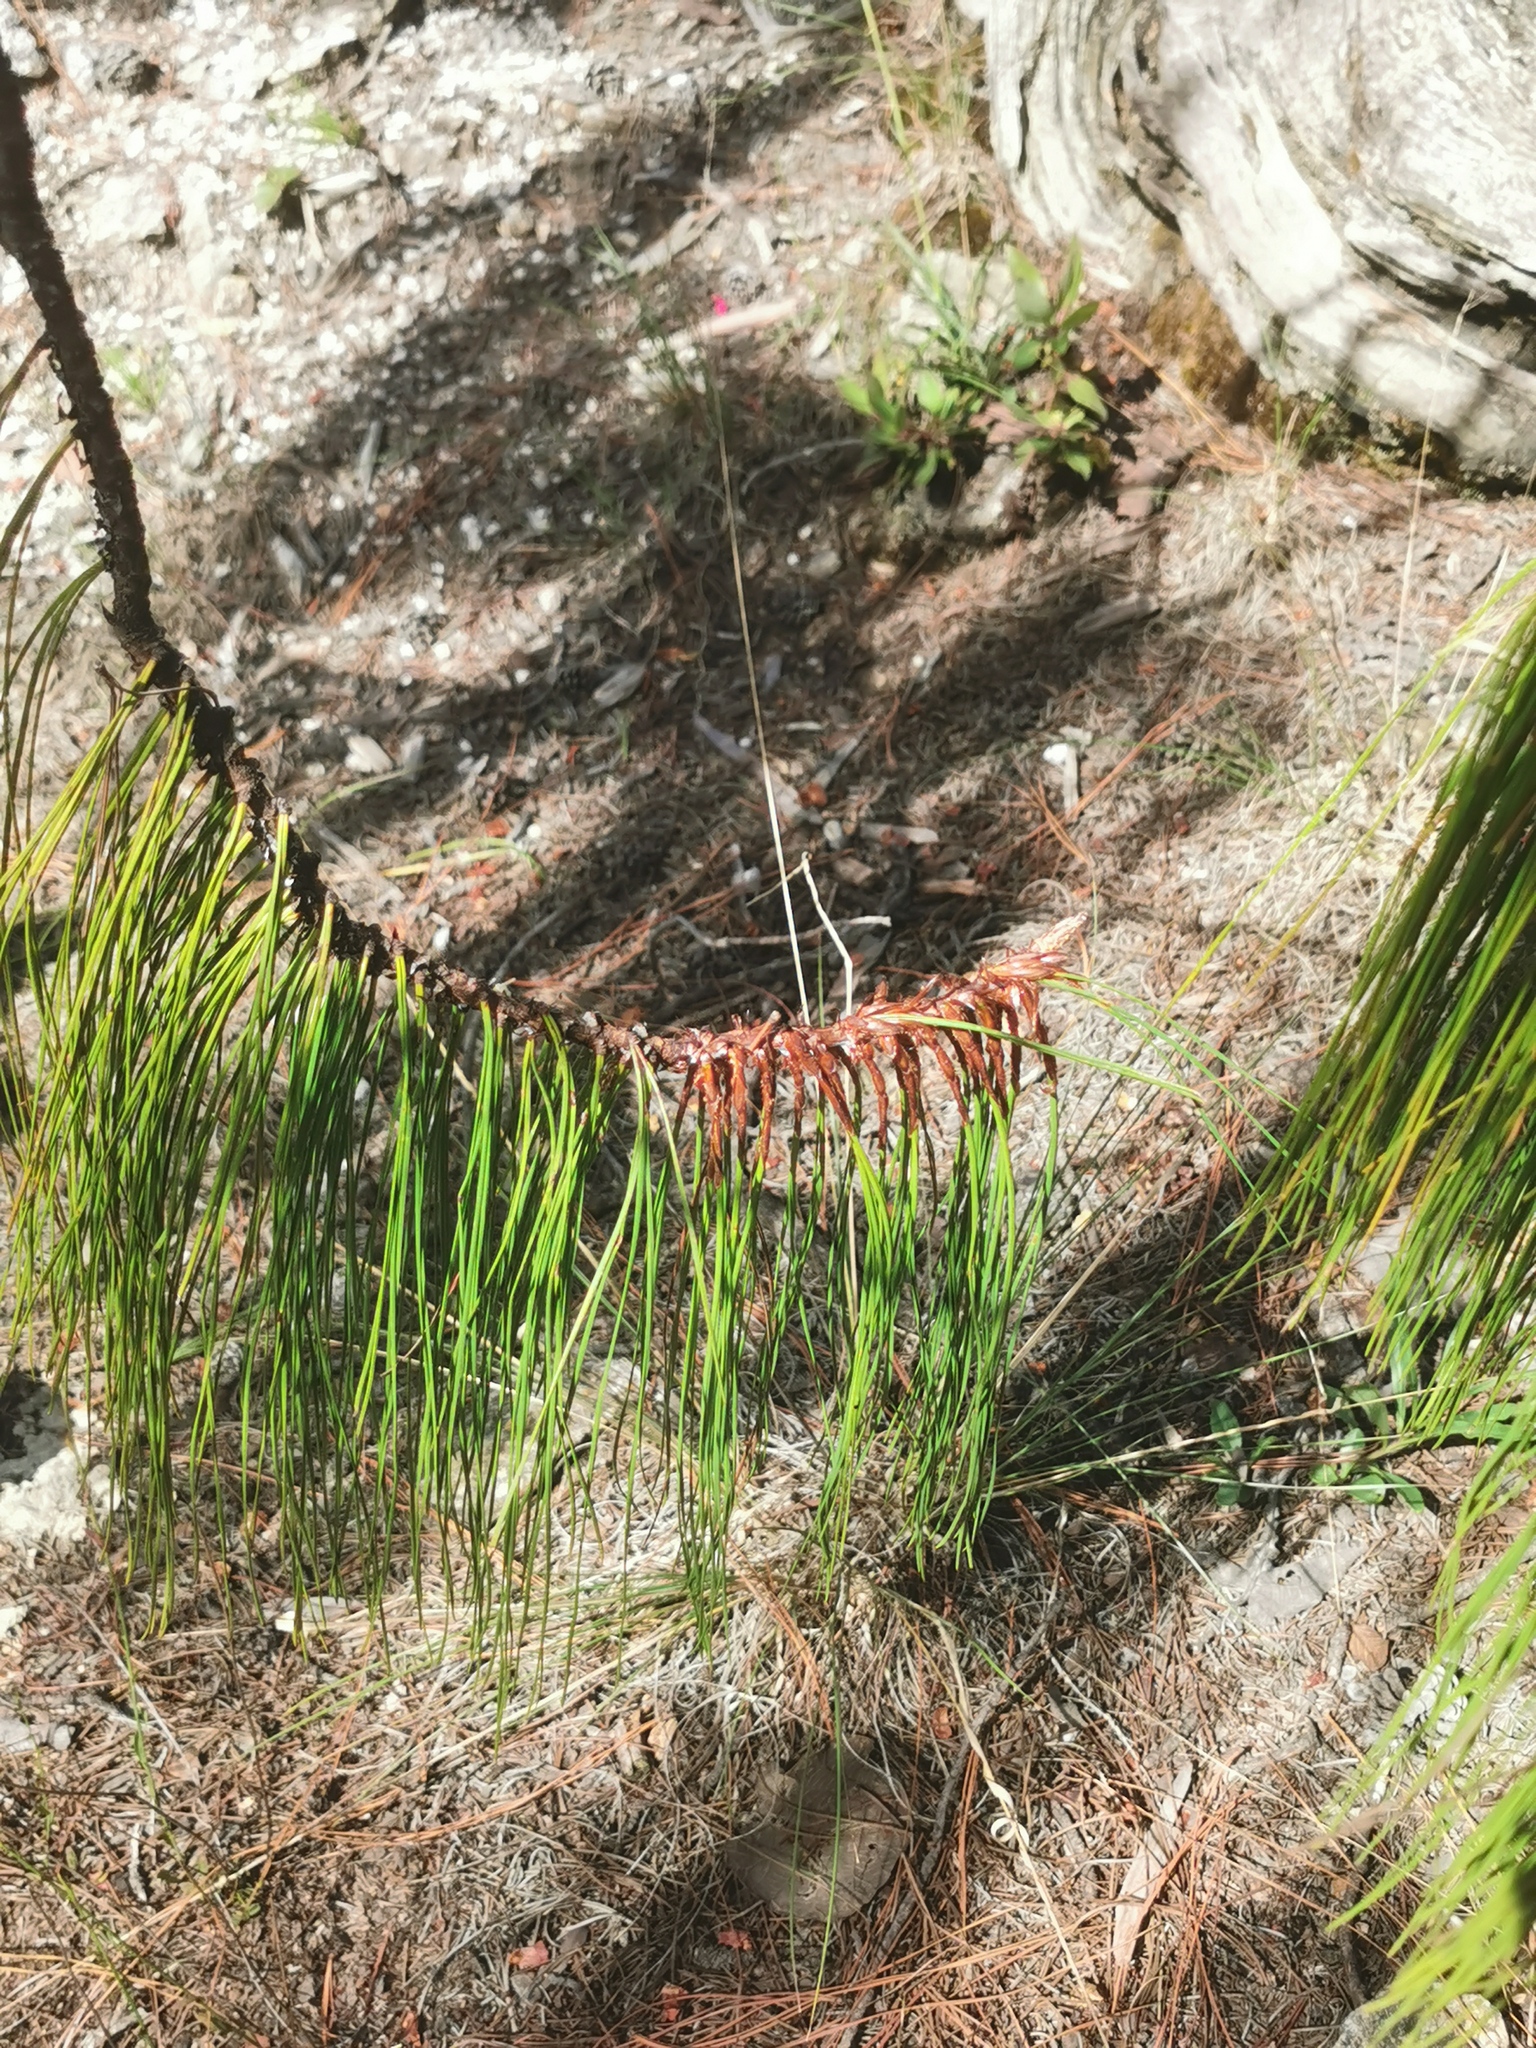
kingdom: Plantae
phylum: Tracheophyta
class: Pinopsida
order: Pinales
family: Pinaceae
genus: Pinus
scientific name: Pinus lumholtzii
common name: Lumholtz's pine
